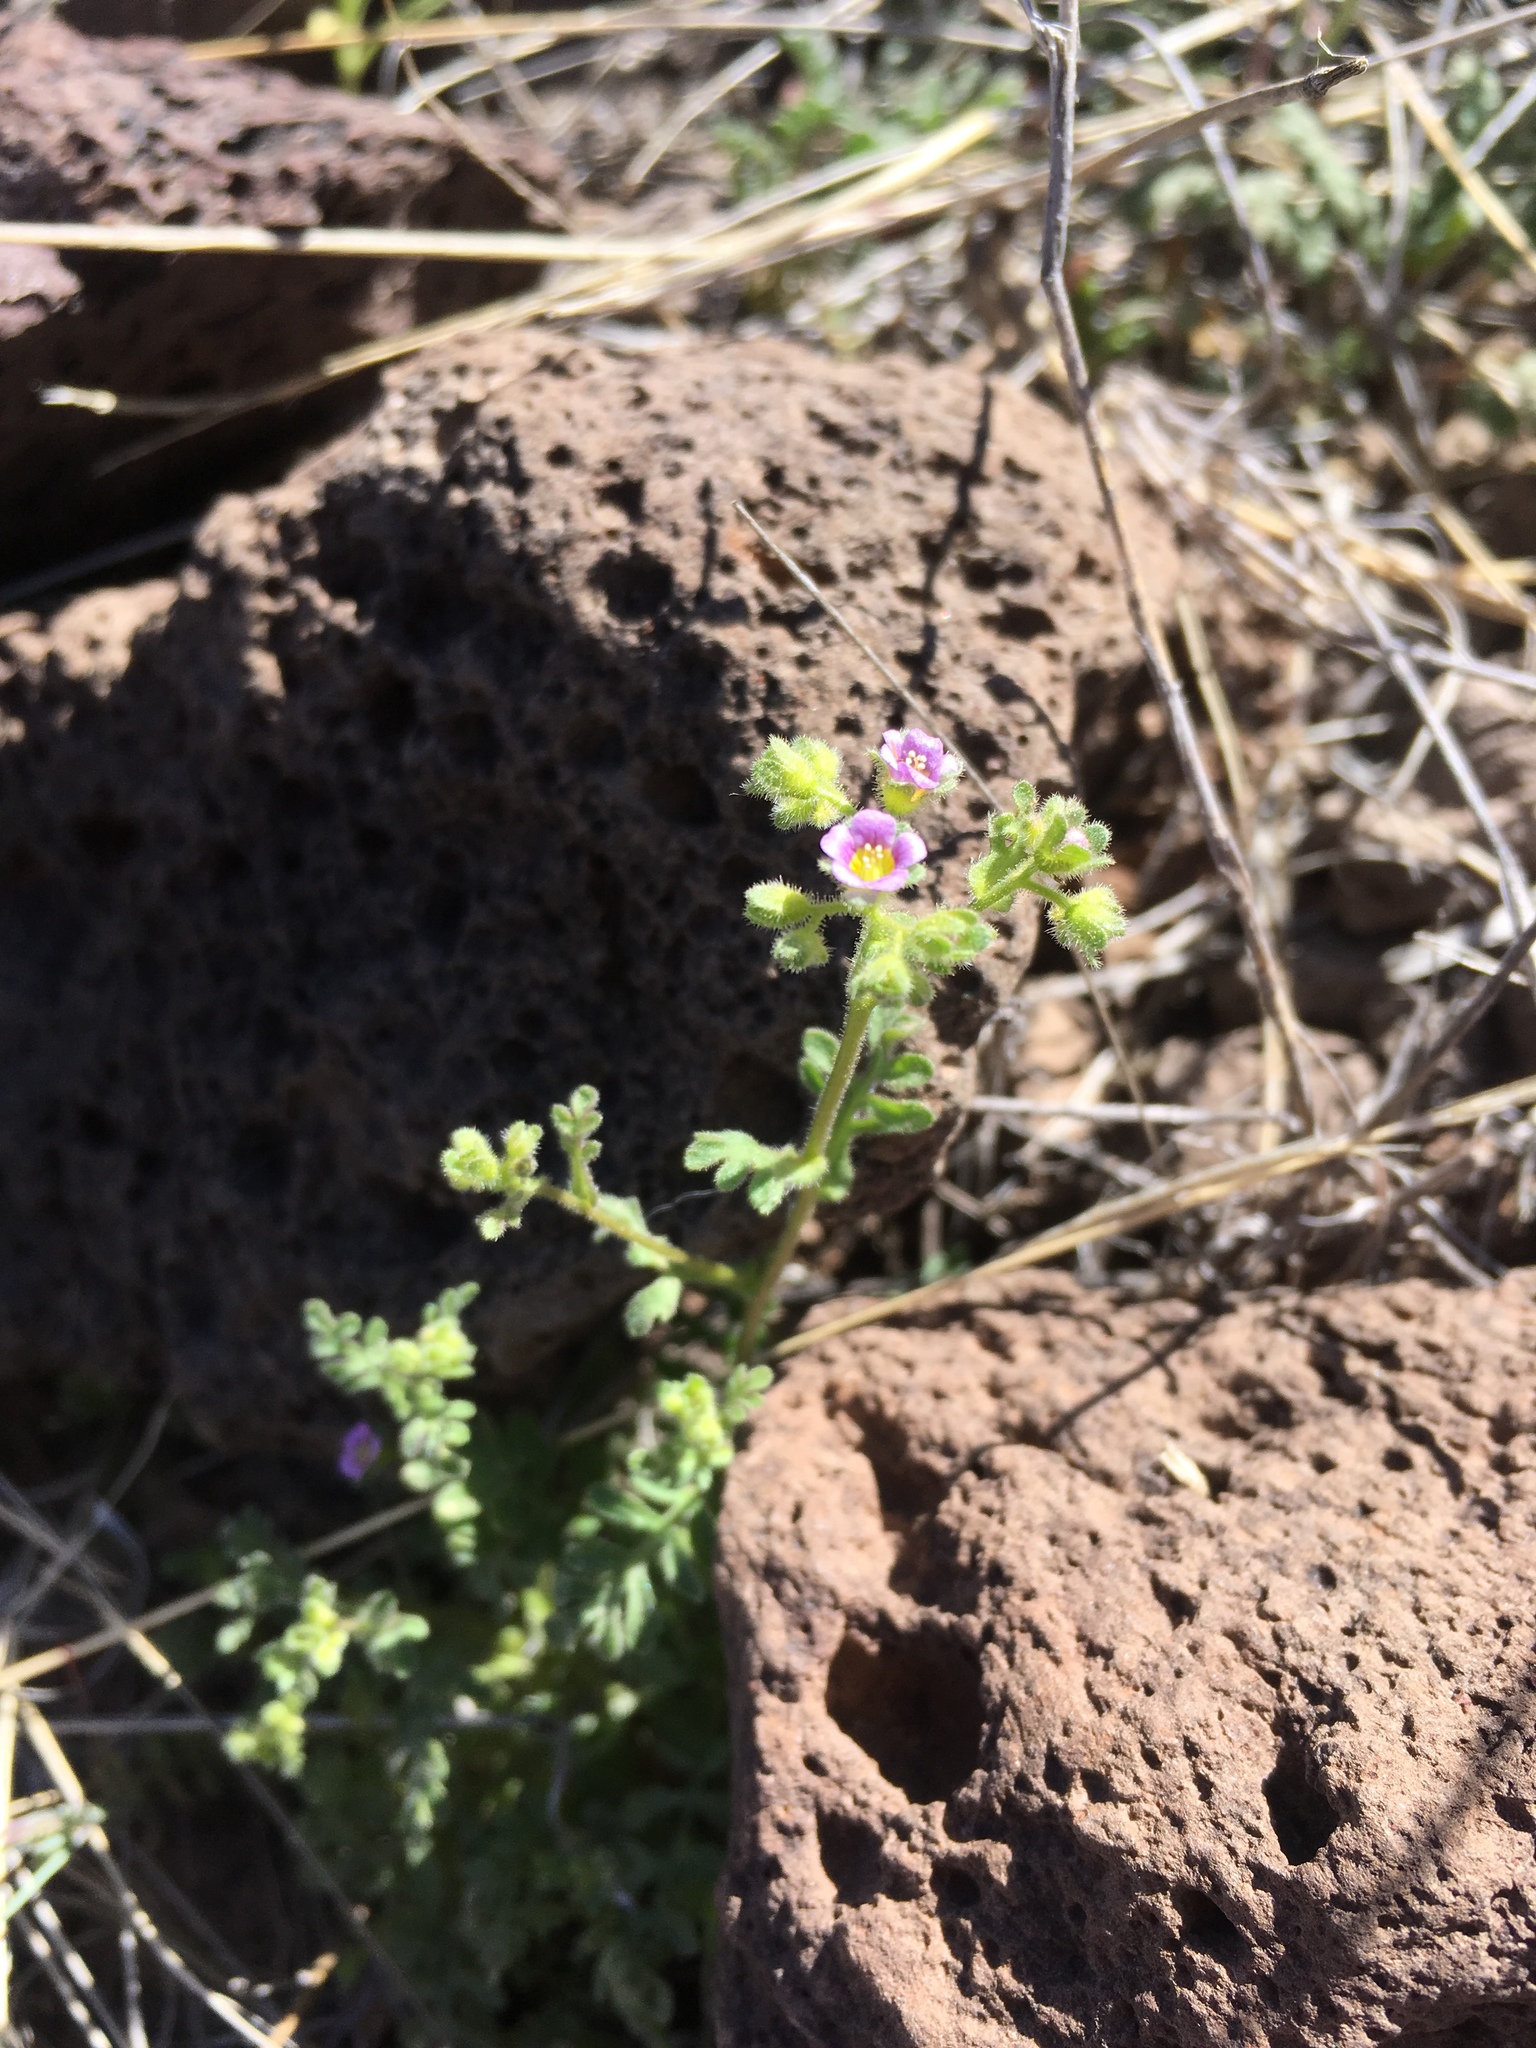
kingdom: Plantae
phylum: Tracheophyta
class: Magnoliopsida
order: Boraginales
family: Hydrophyllaceae
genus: Eucrypta
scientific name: Eucrypta micrantha
